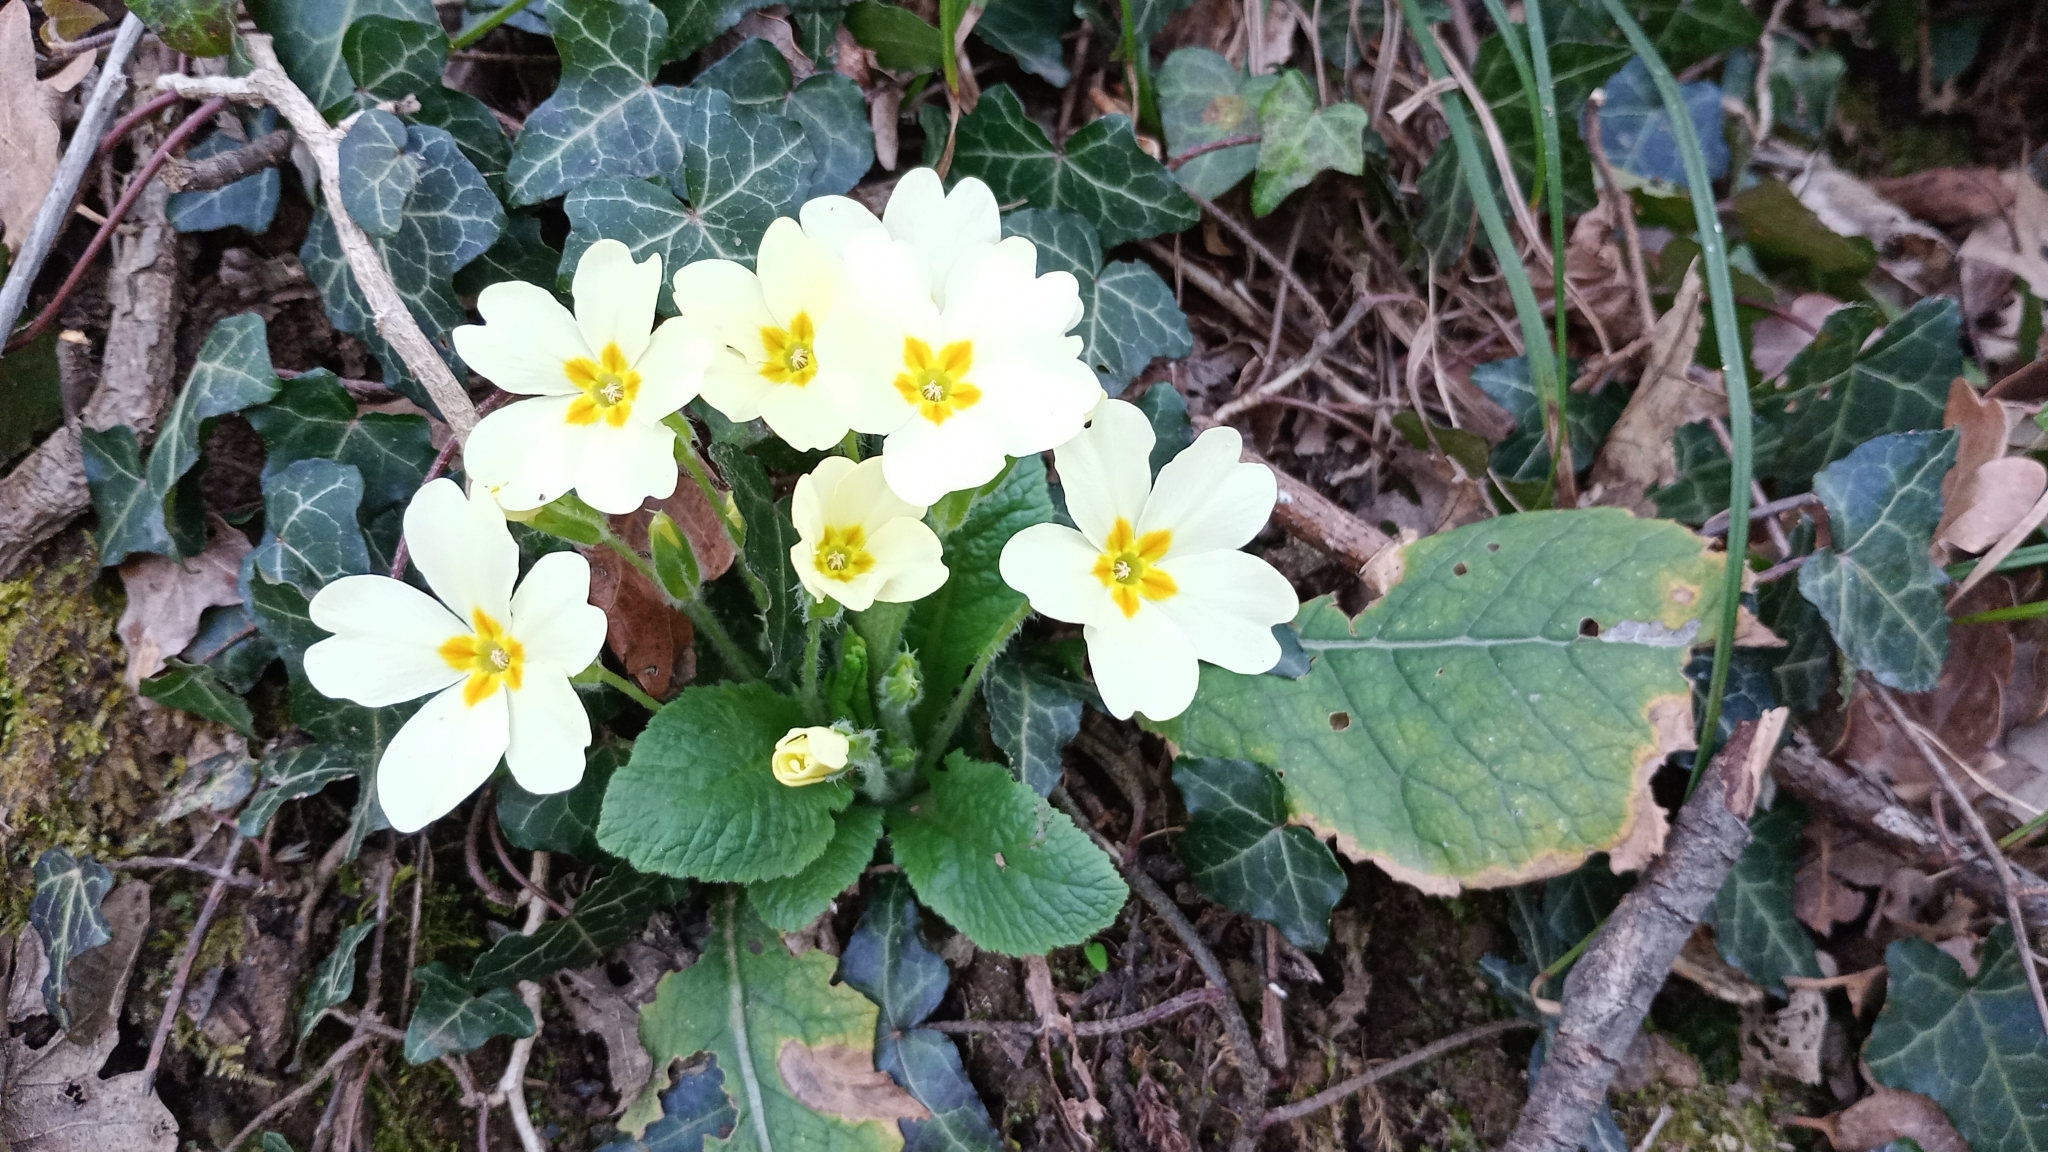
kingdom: Plantae
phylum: Tracheophyta
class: Magnoliopsida
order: Ericales
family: Primulaceae
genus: Primula
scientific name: Primula vulgaris
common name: Primrose
